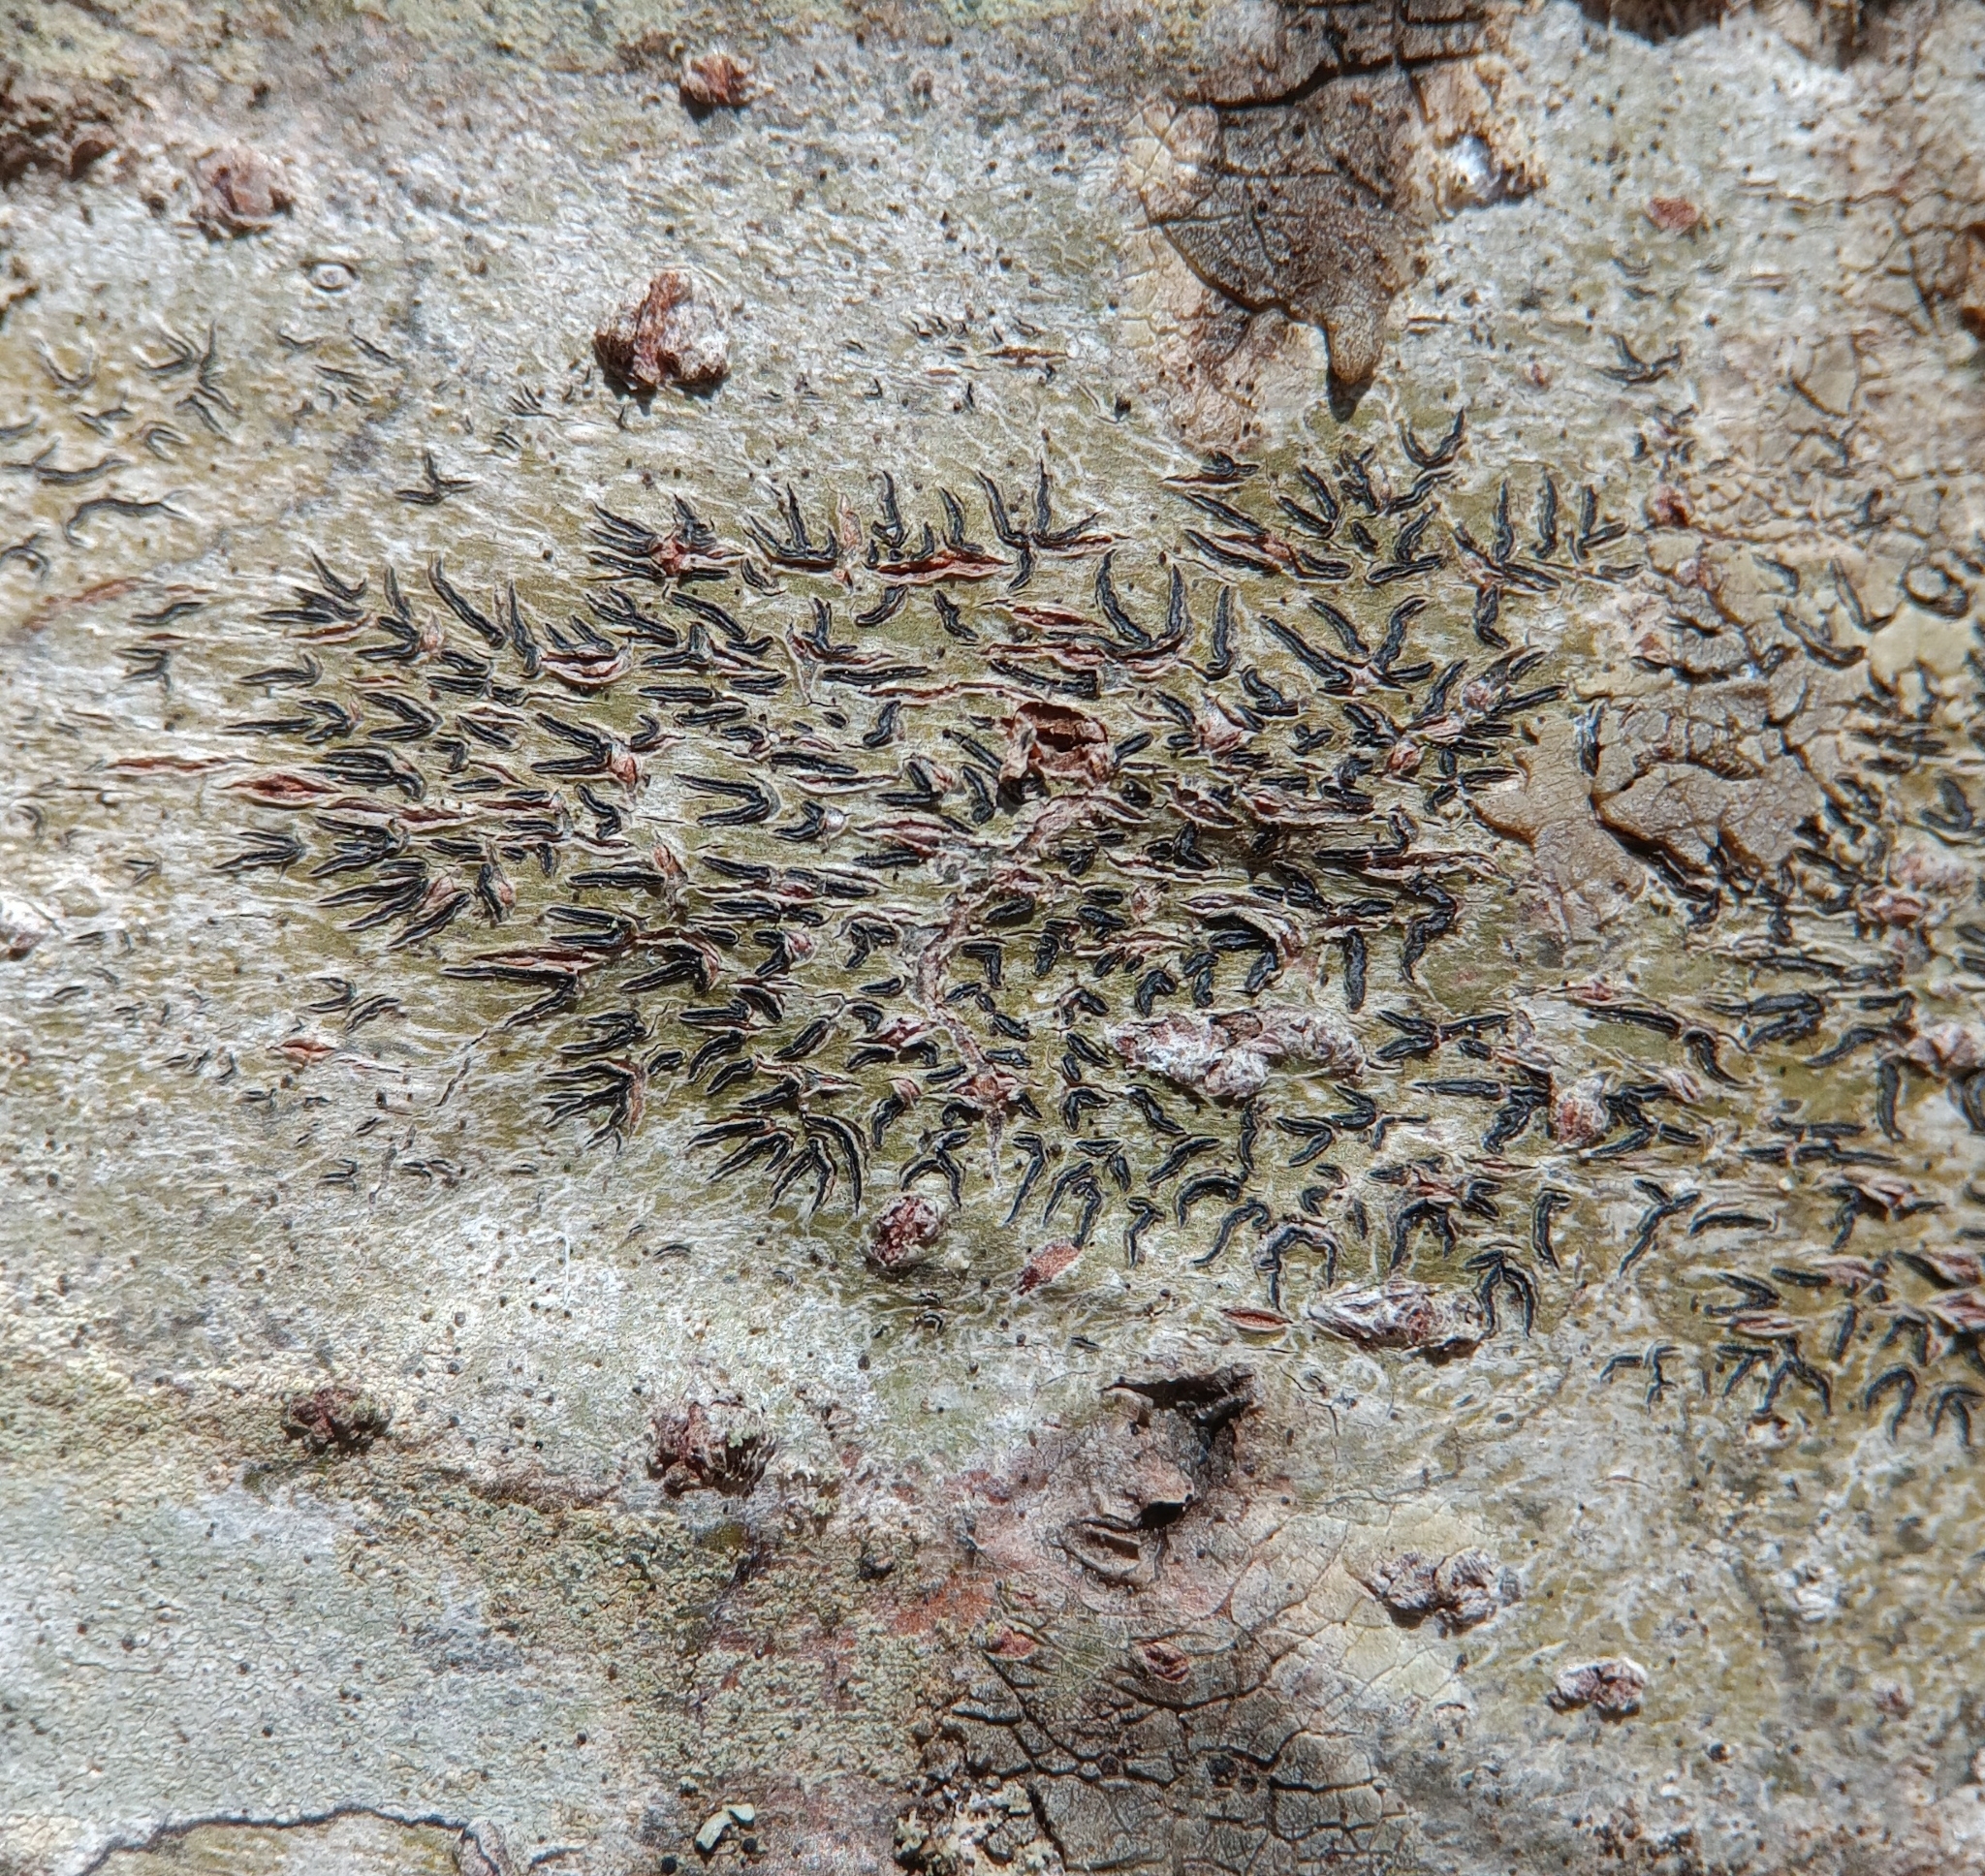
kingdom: Fungi
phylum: Ascomycota
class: Lecanoromycetes
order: Ostropales
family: Graphidaceae
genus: Graphis
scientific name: Graphis scripta
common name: Script lichen
